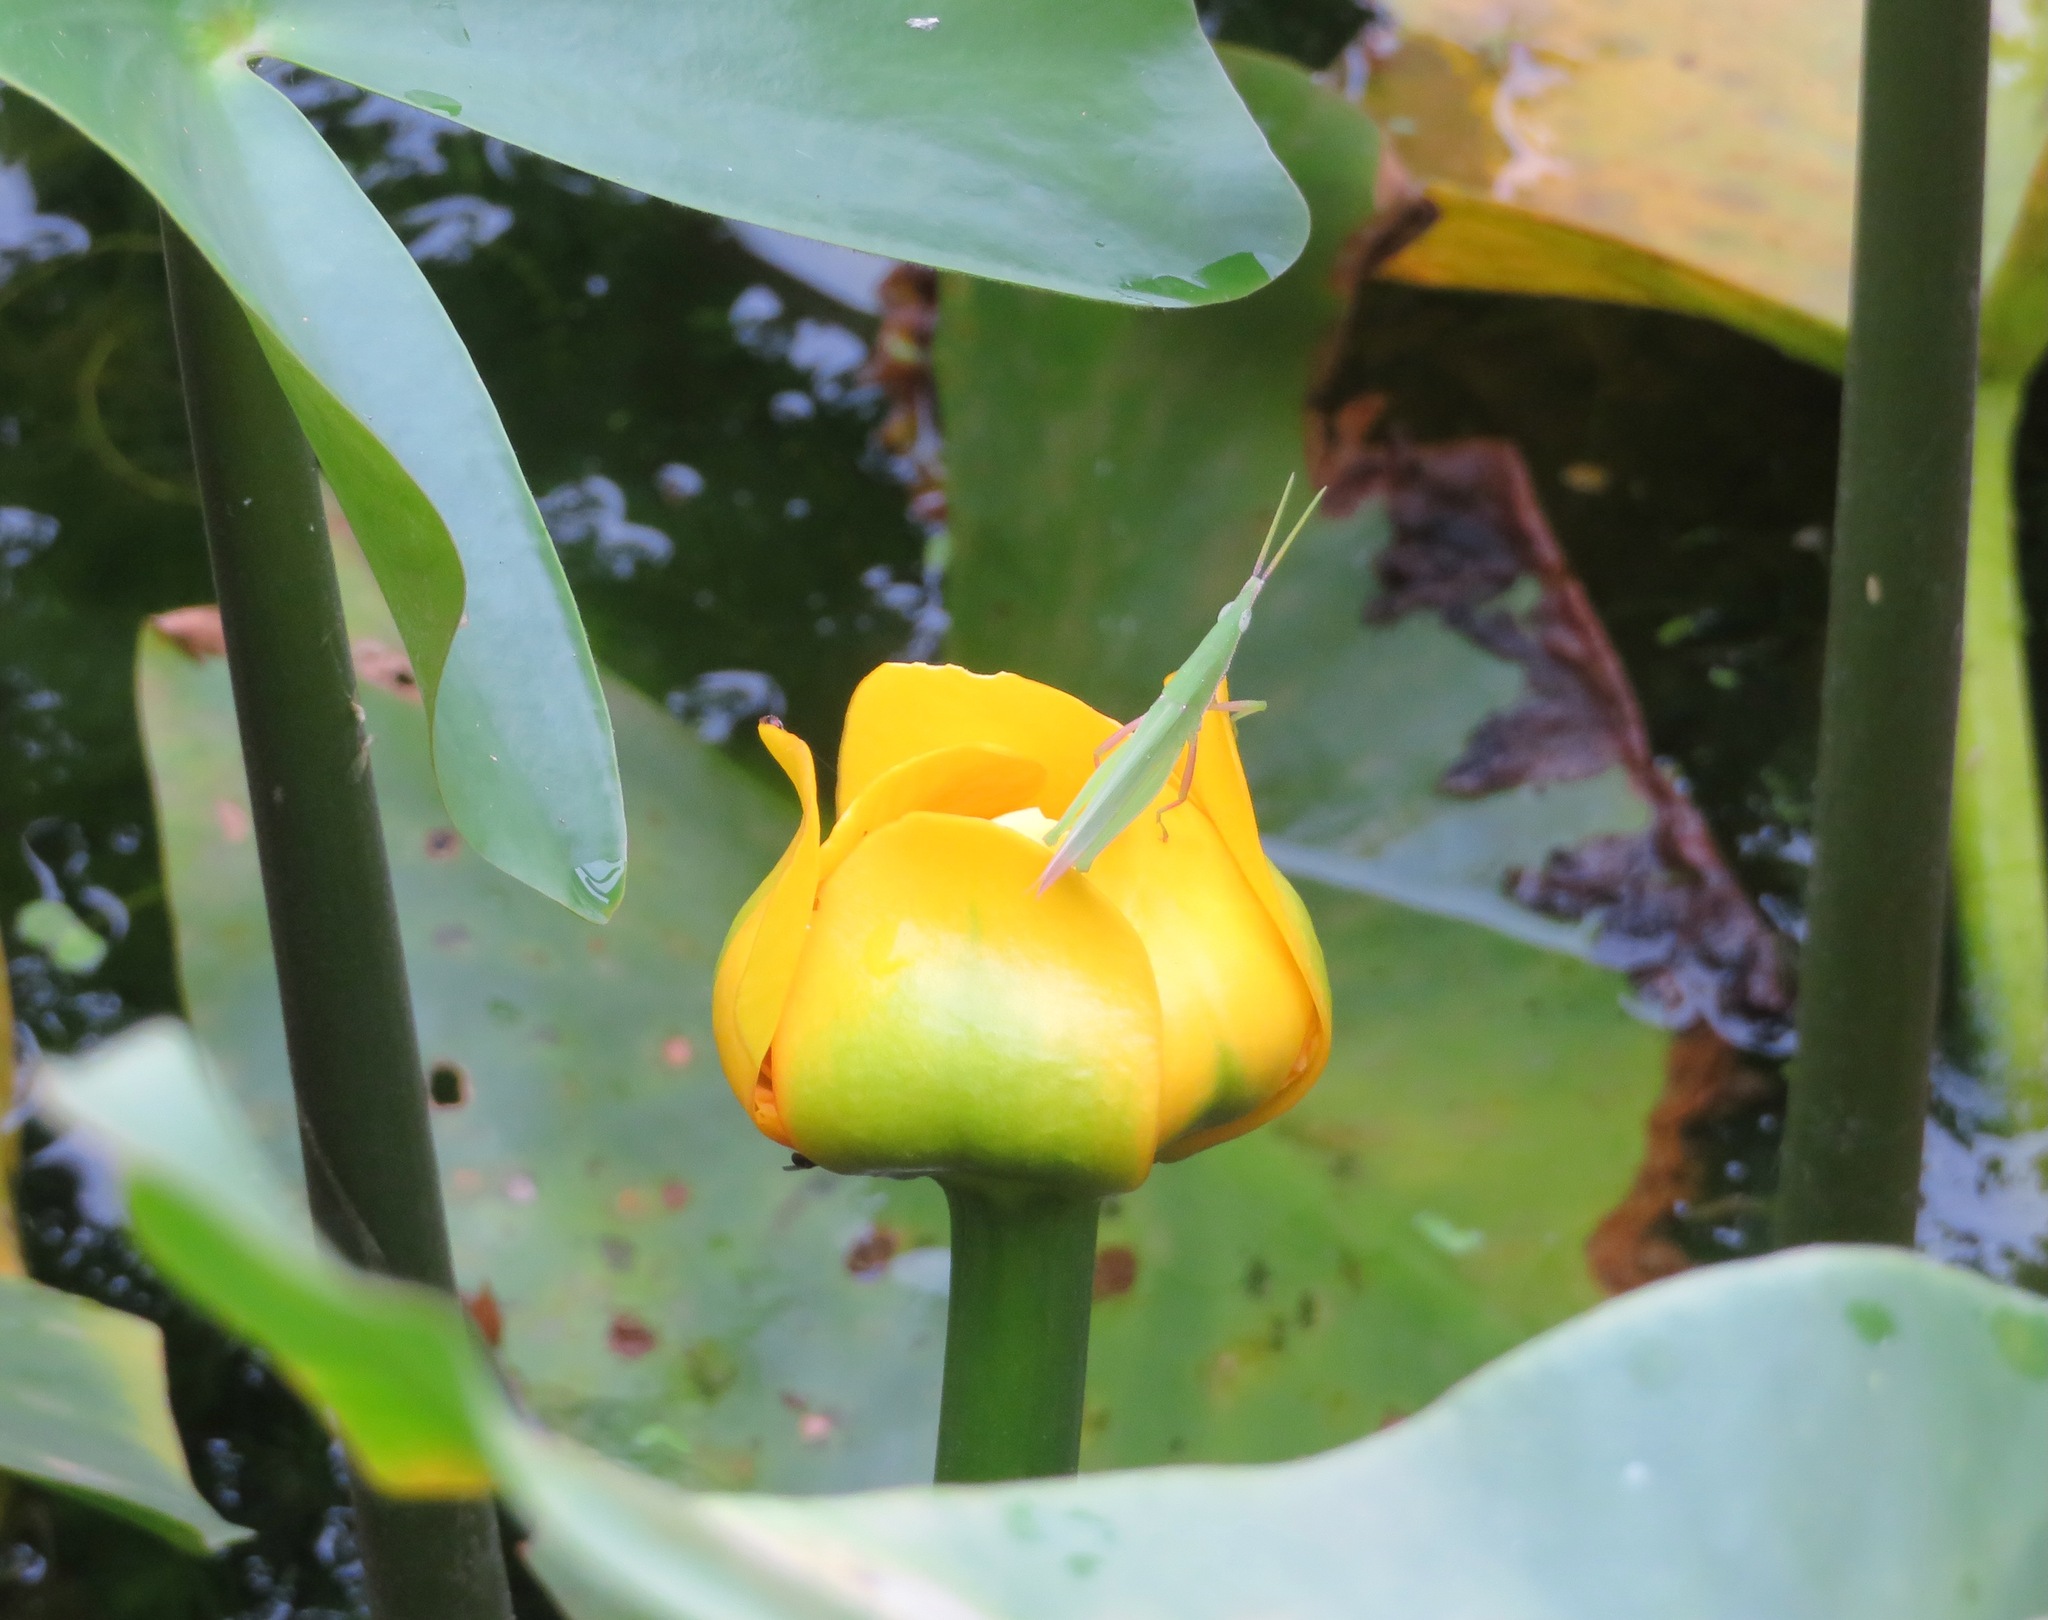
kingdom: Animalia
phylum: Arthropoda
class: Insecta
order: Orthoptera
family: Pyrgomorphidae
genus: Atractomorpha
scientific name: Atractomorpha lata
